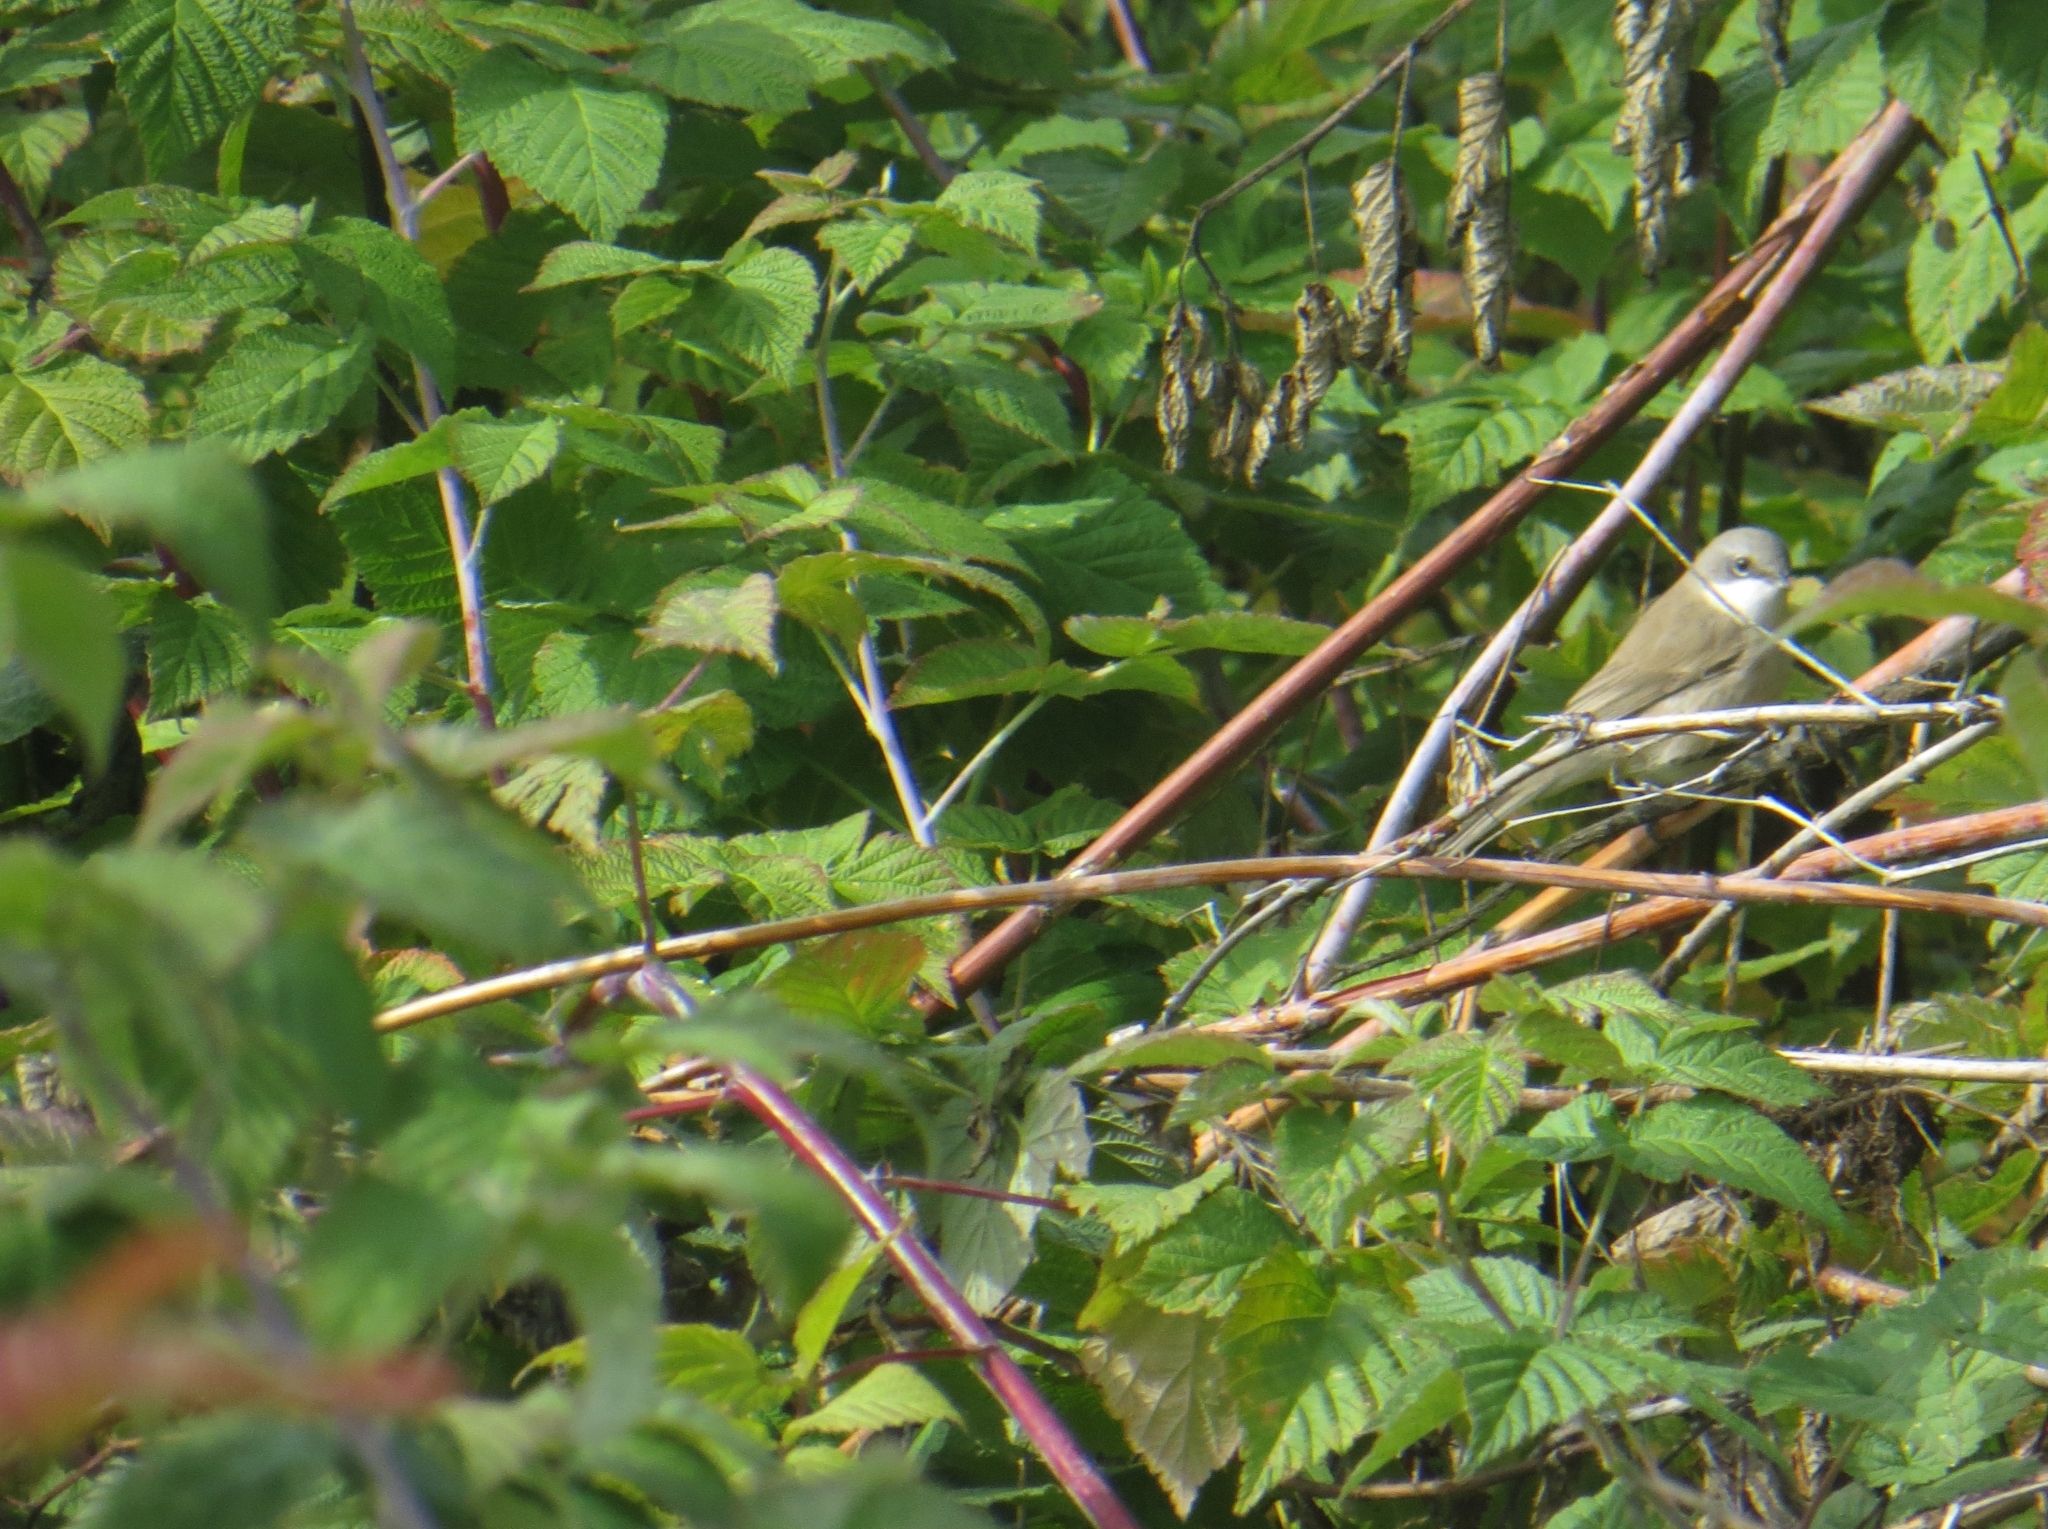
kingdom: Animalia
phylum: Chordata
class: Aves
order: Passeriformes
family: Sylviidae
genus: Sylvia
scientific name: Sylvia curruca
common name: Lesser whitethroat
